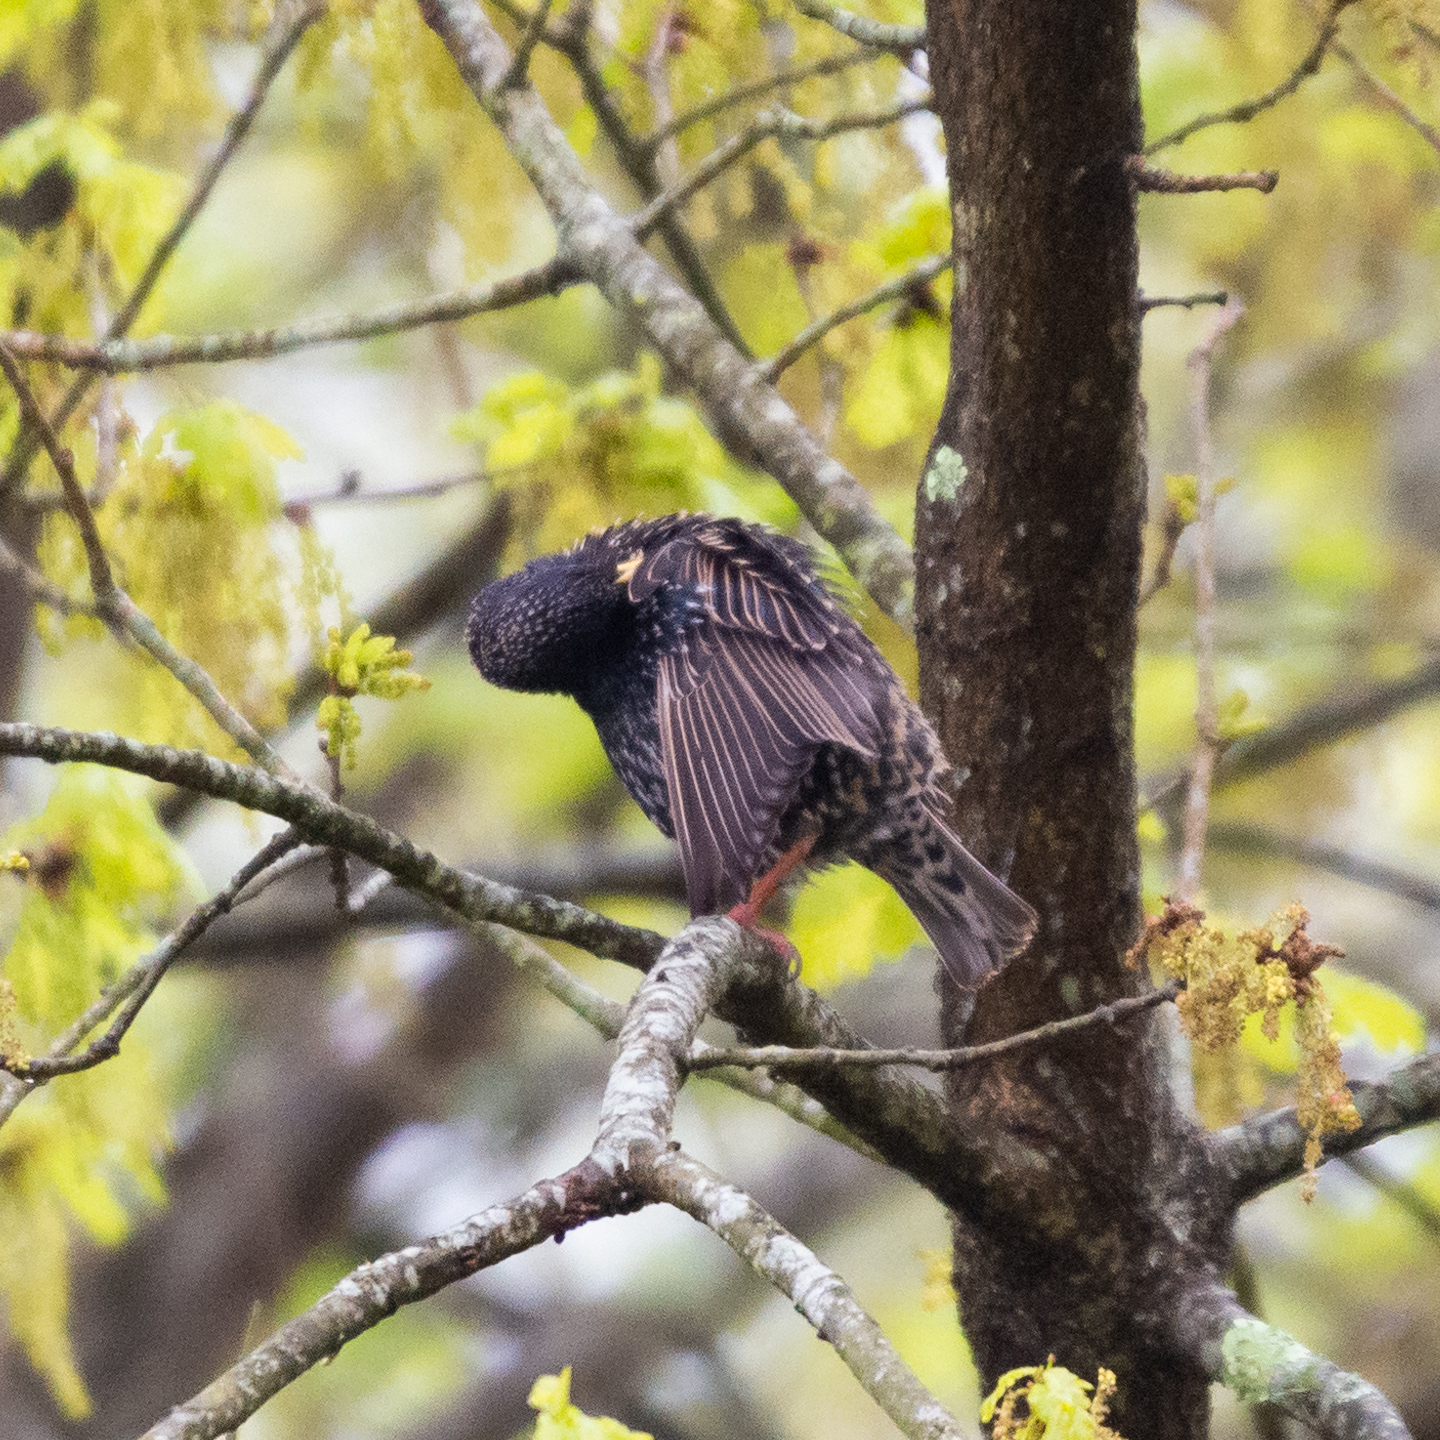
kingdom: Animalia
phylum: Chordata
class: Aves
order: Passeriformes
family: Sturnidae
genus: Sturnus
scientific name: Sturnus vulgaris
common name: Common starling
